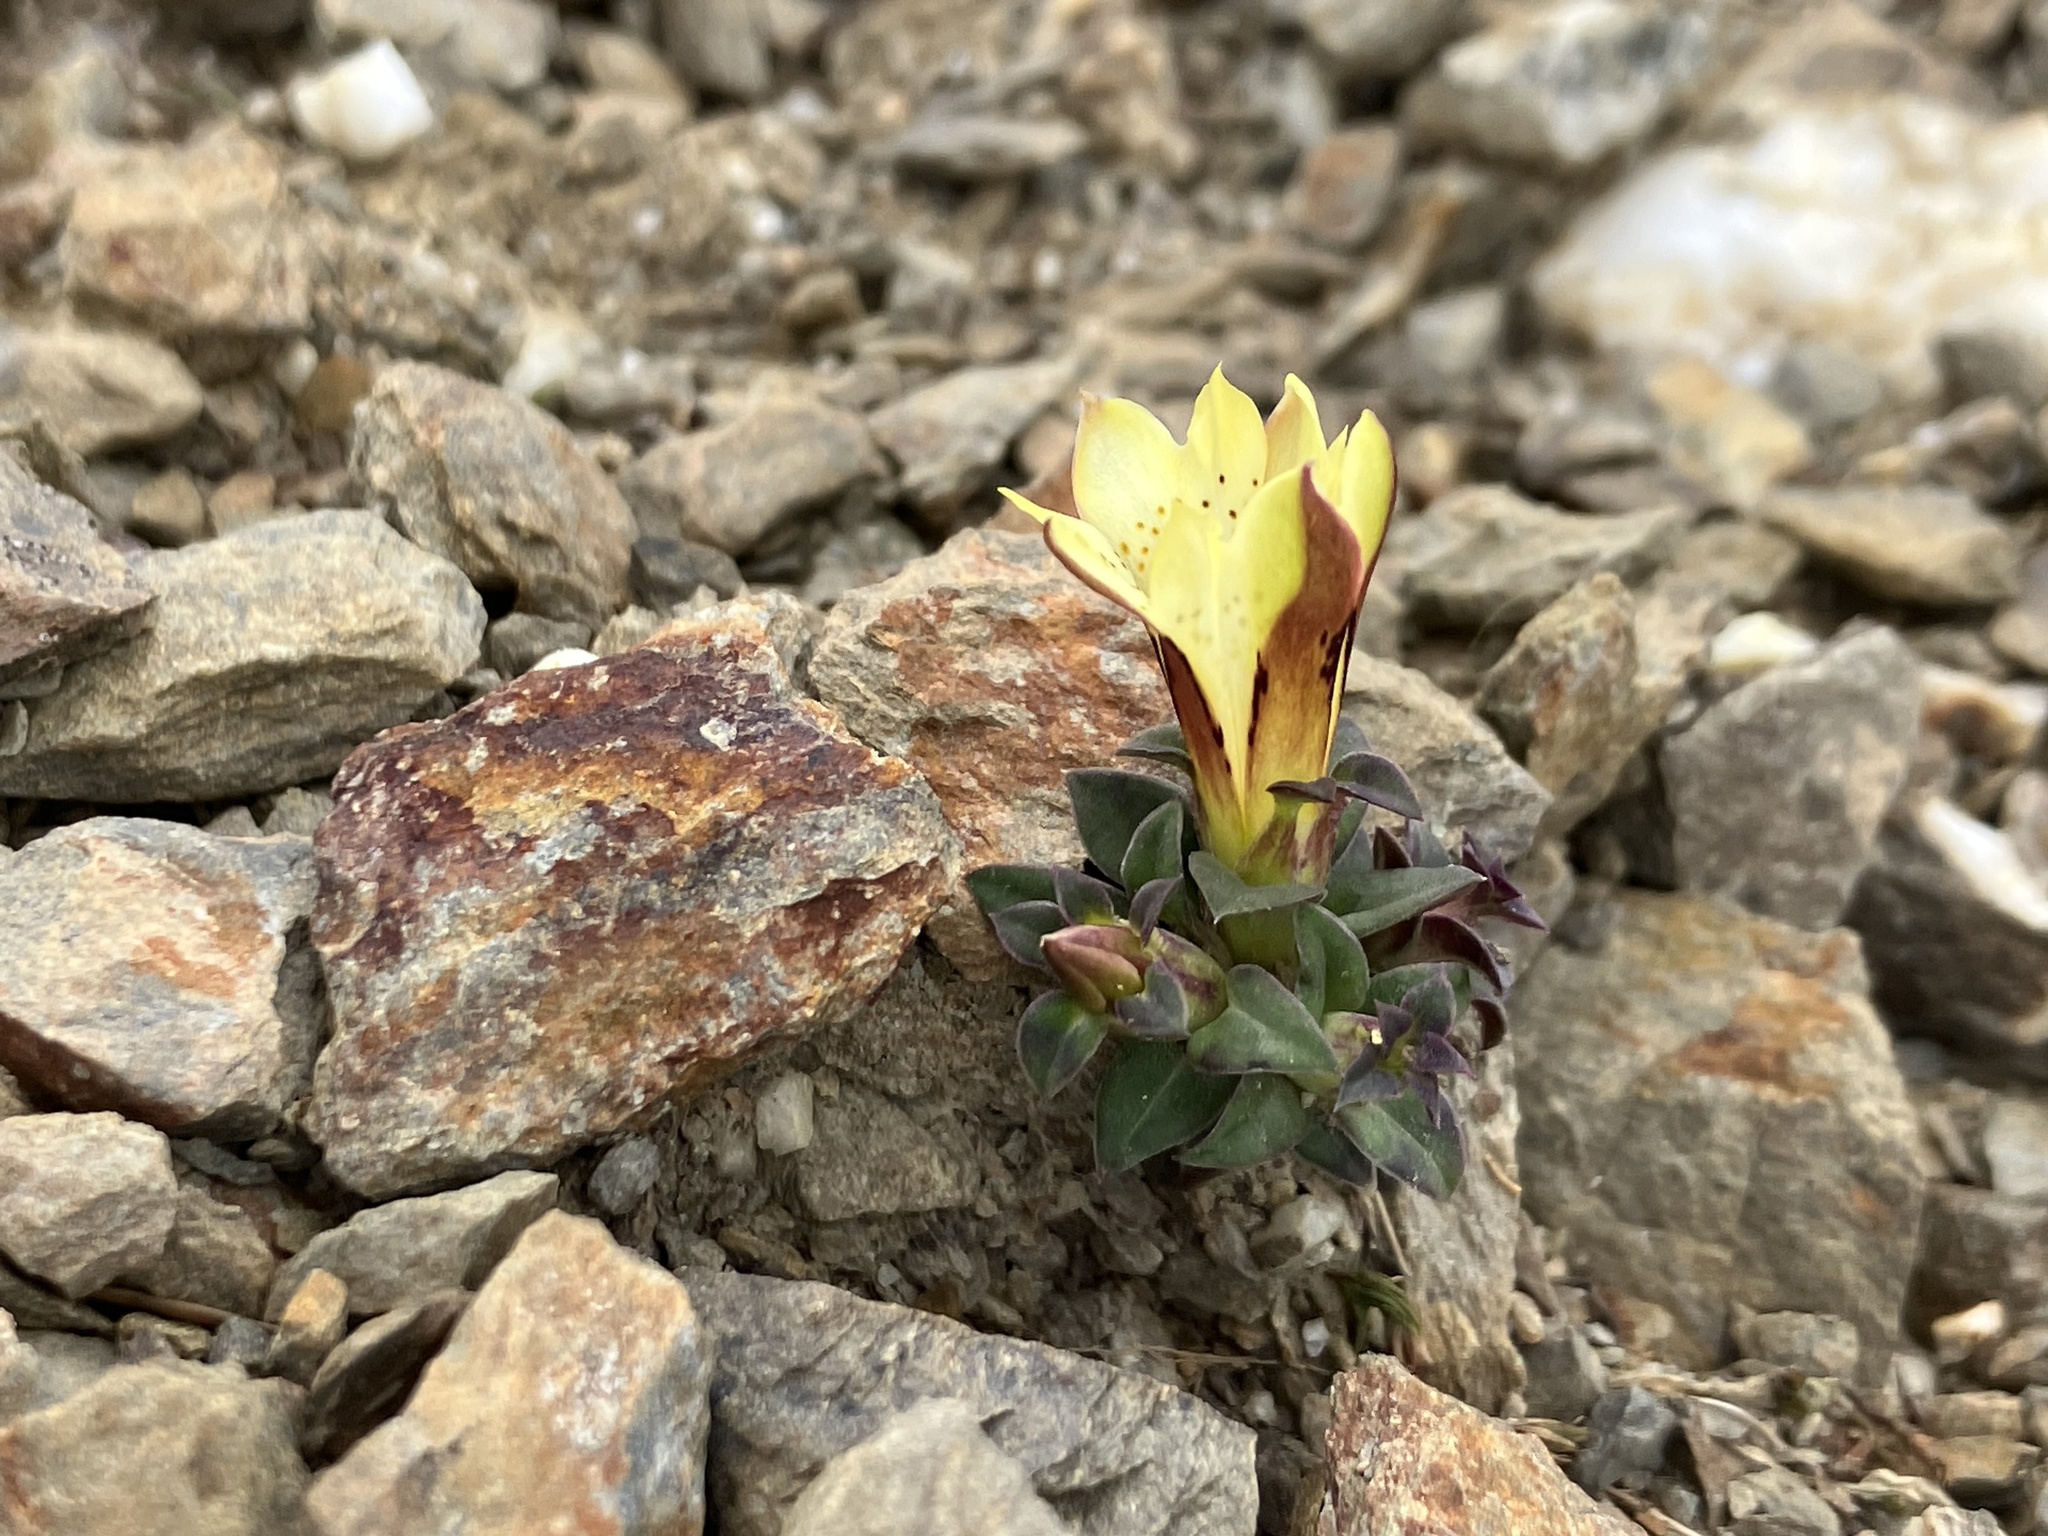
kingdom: Plantae
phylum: Tracheophyta
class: Magnoliopsida
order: Gentianales
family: Gentianaceae
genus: Gentiana
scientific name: Gentiana scabrida
